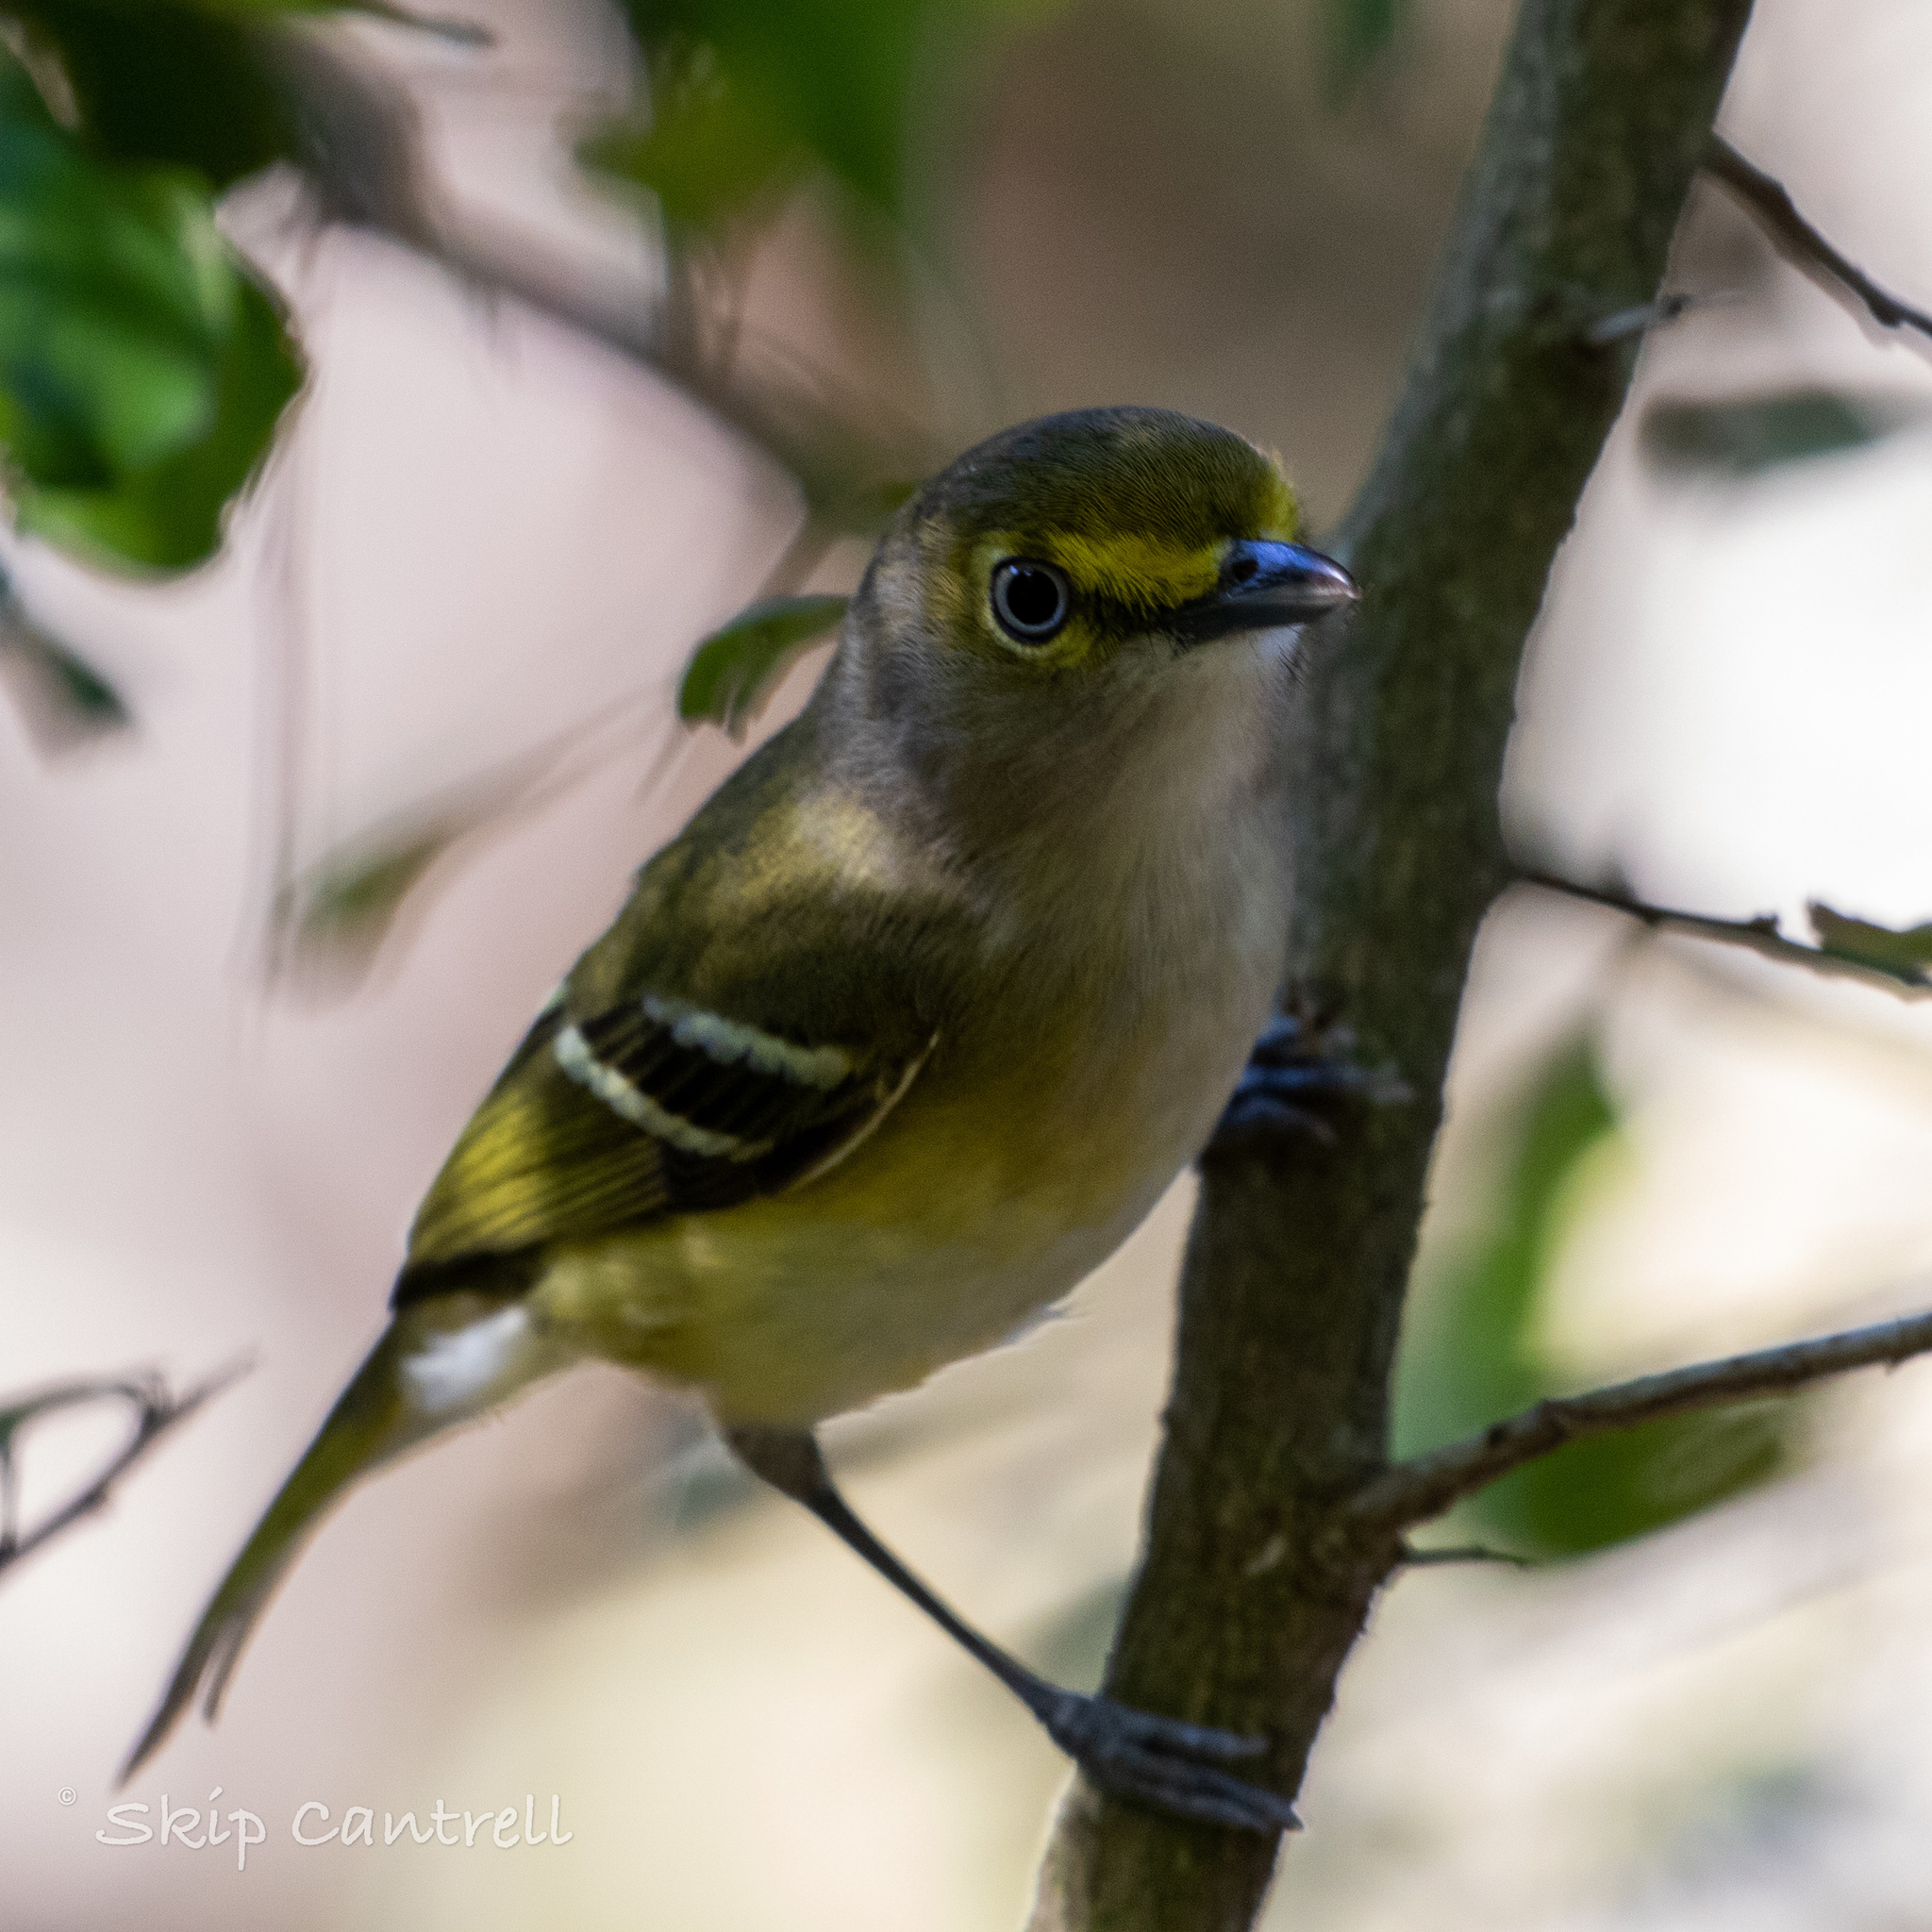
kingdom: Animalia
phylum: Chordata
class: Aves
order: Passeriformes
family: Vireonidae
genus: Vireo
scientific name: Vireo griseus
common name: White-eyed vireo
